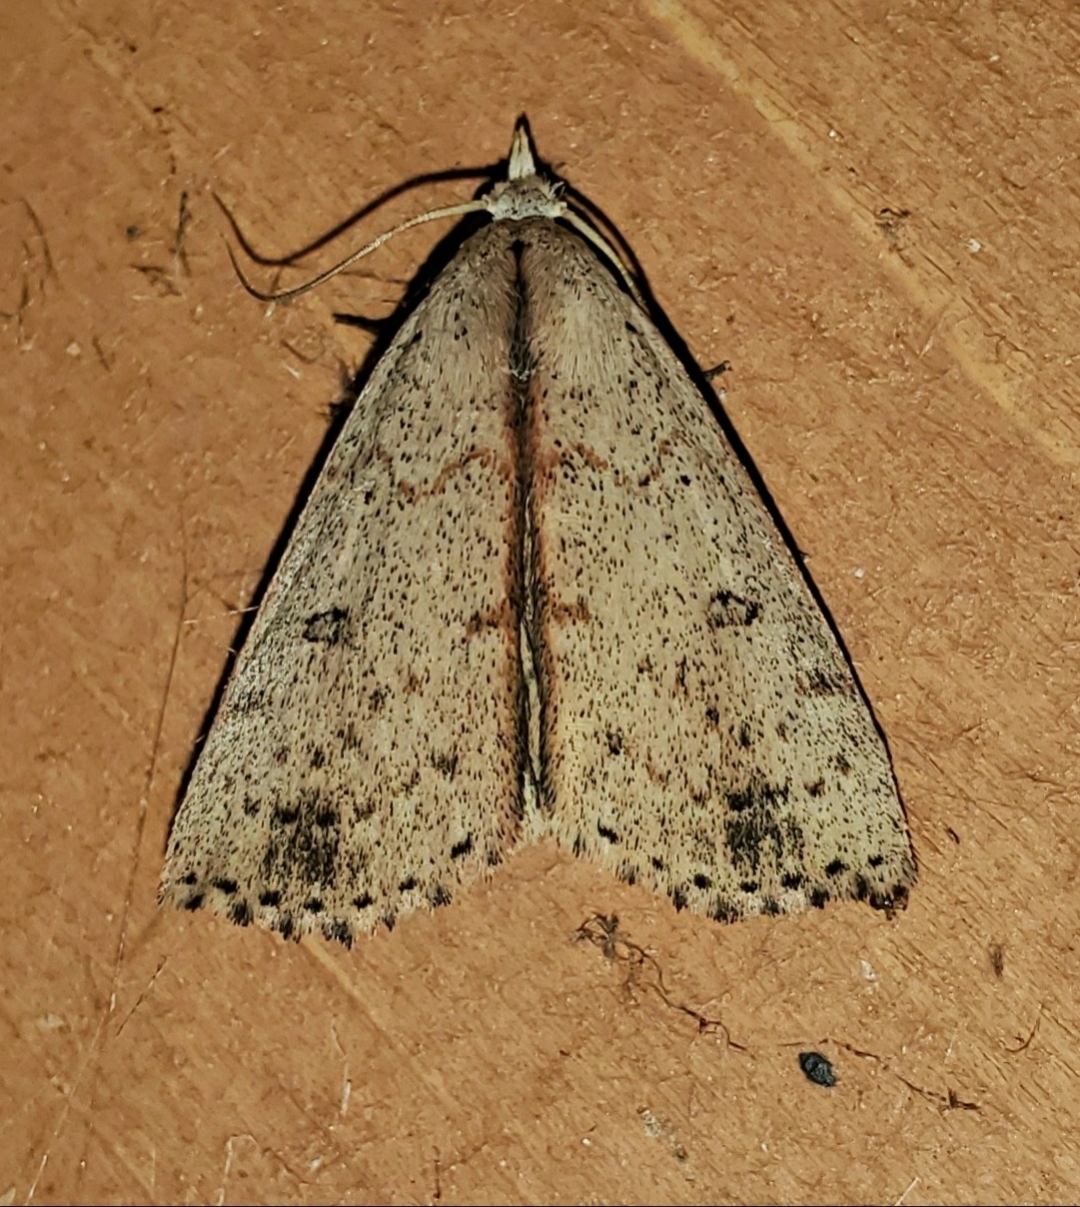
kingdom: Animalia
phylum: Arthropoda
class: Insecta
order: Lepidoptera
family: Erebidae
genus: Scolecocampa
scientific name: Scolecocampa liburna
